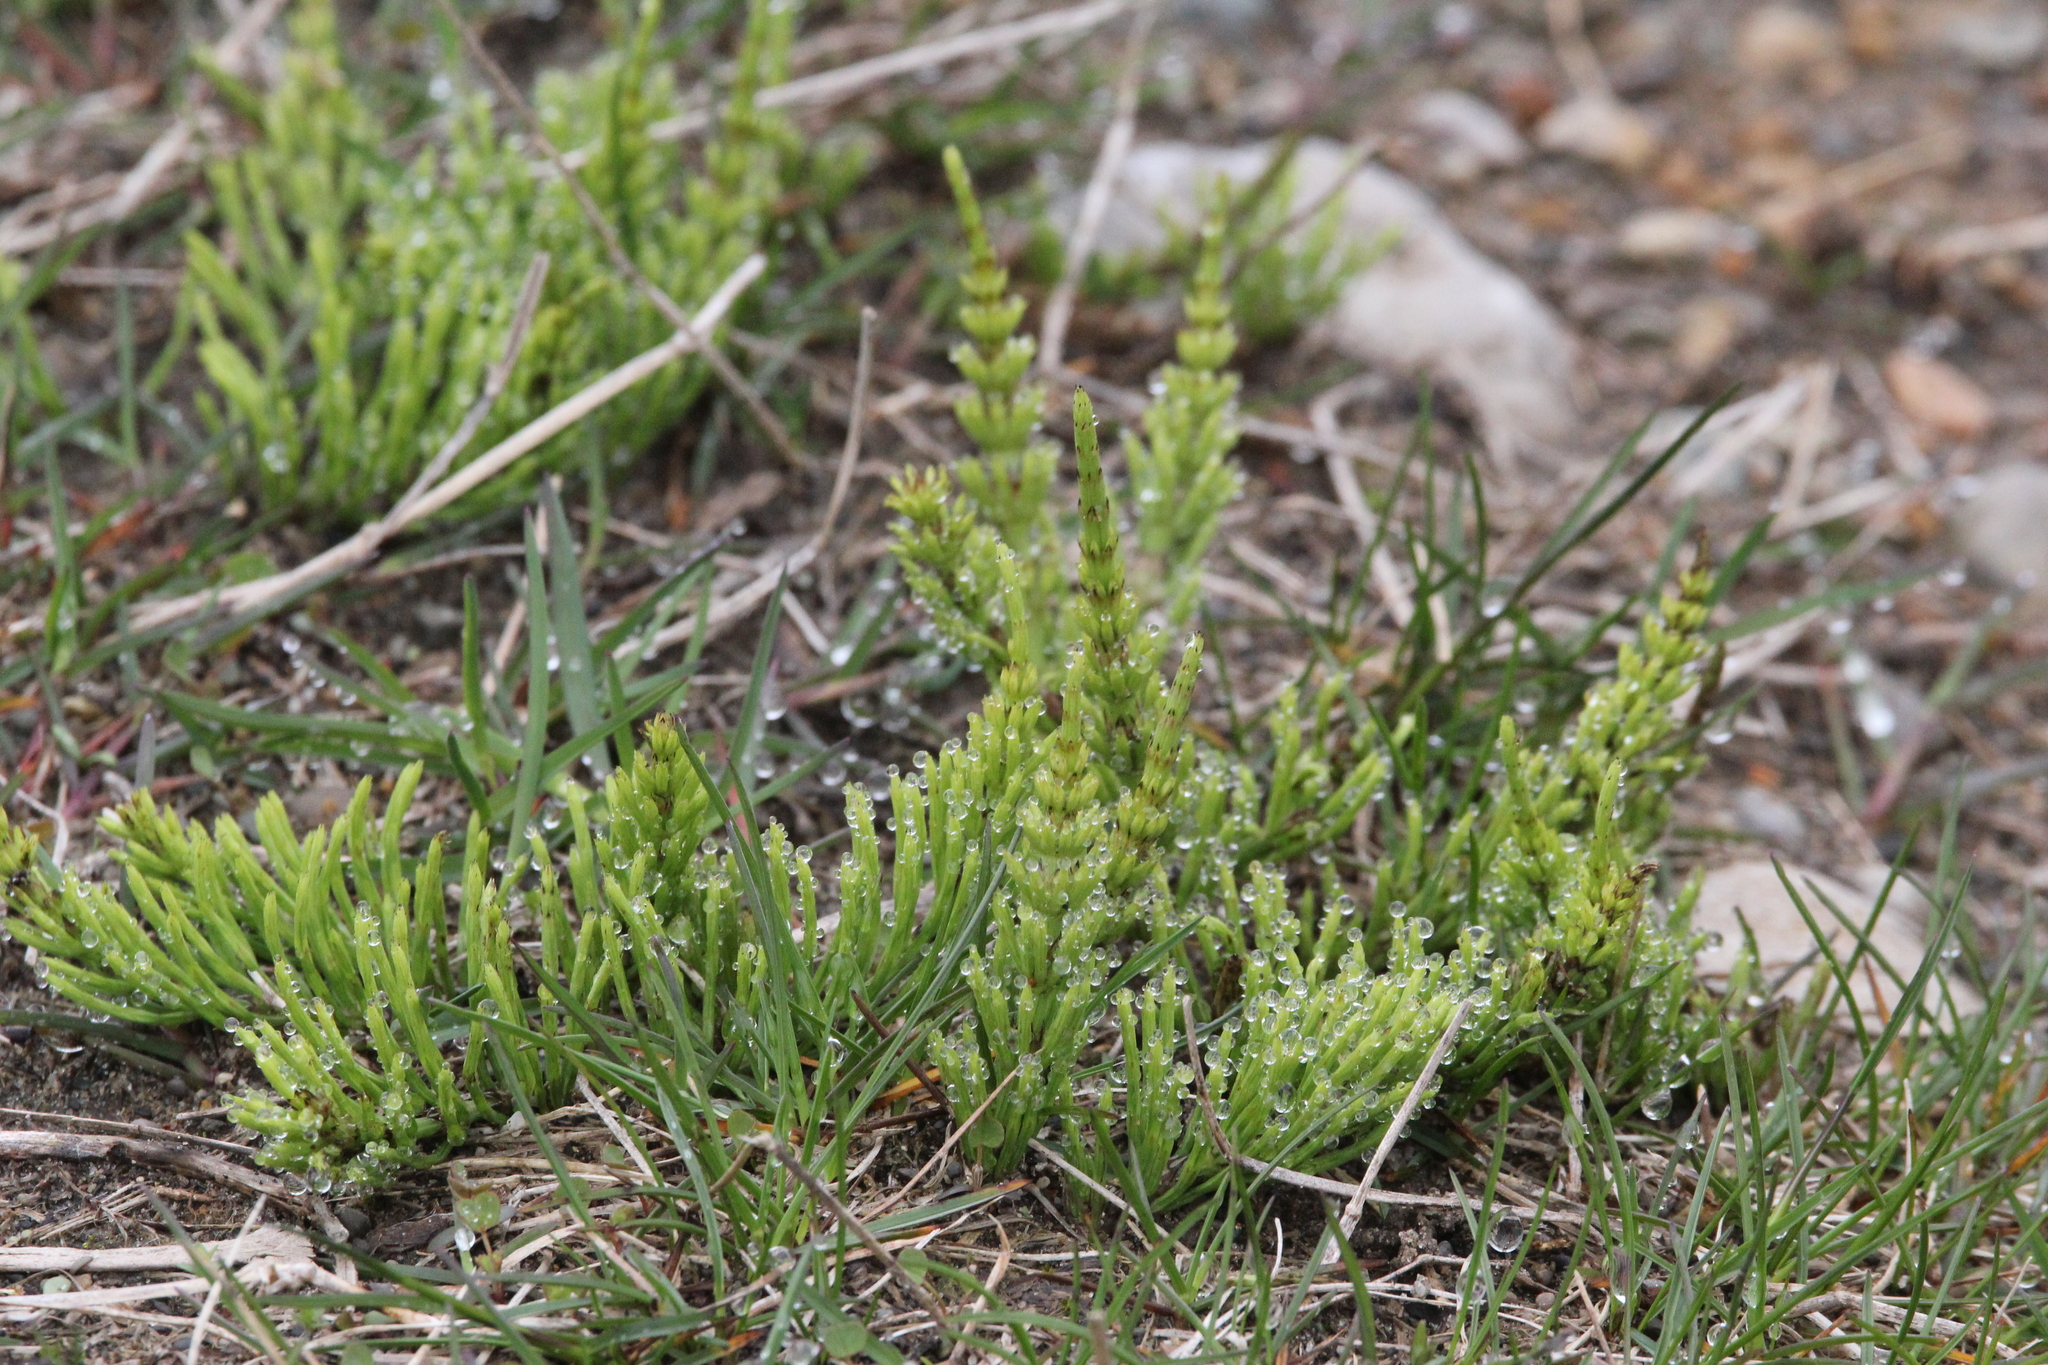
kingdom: Plantae
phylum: Tracheophyta
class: Polypodiopsida
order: Equisetales
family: Equisetaceae
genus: Equisetum
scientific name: Equisetum arvense
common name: Field horsetail
